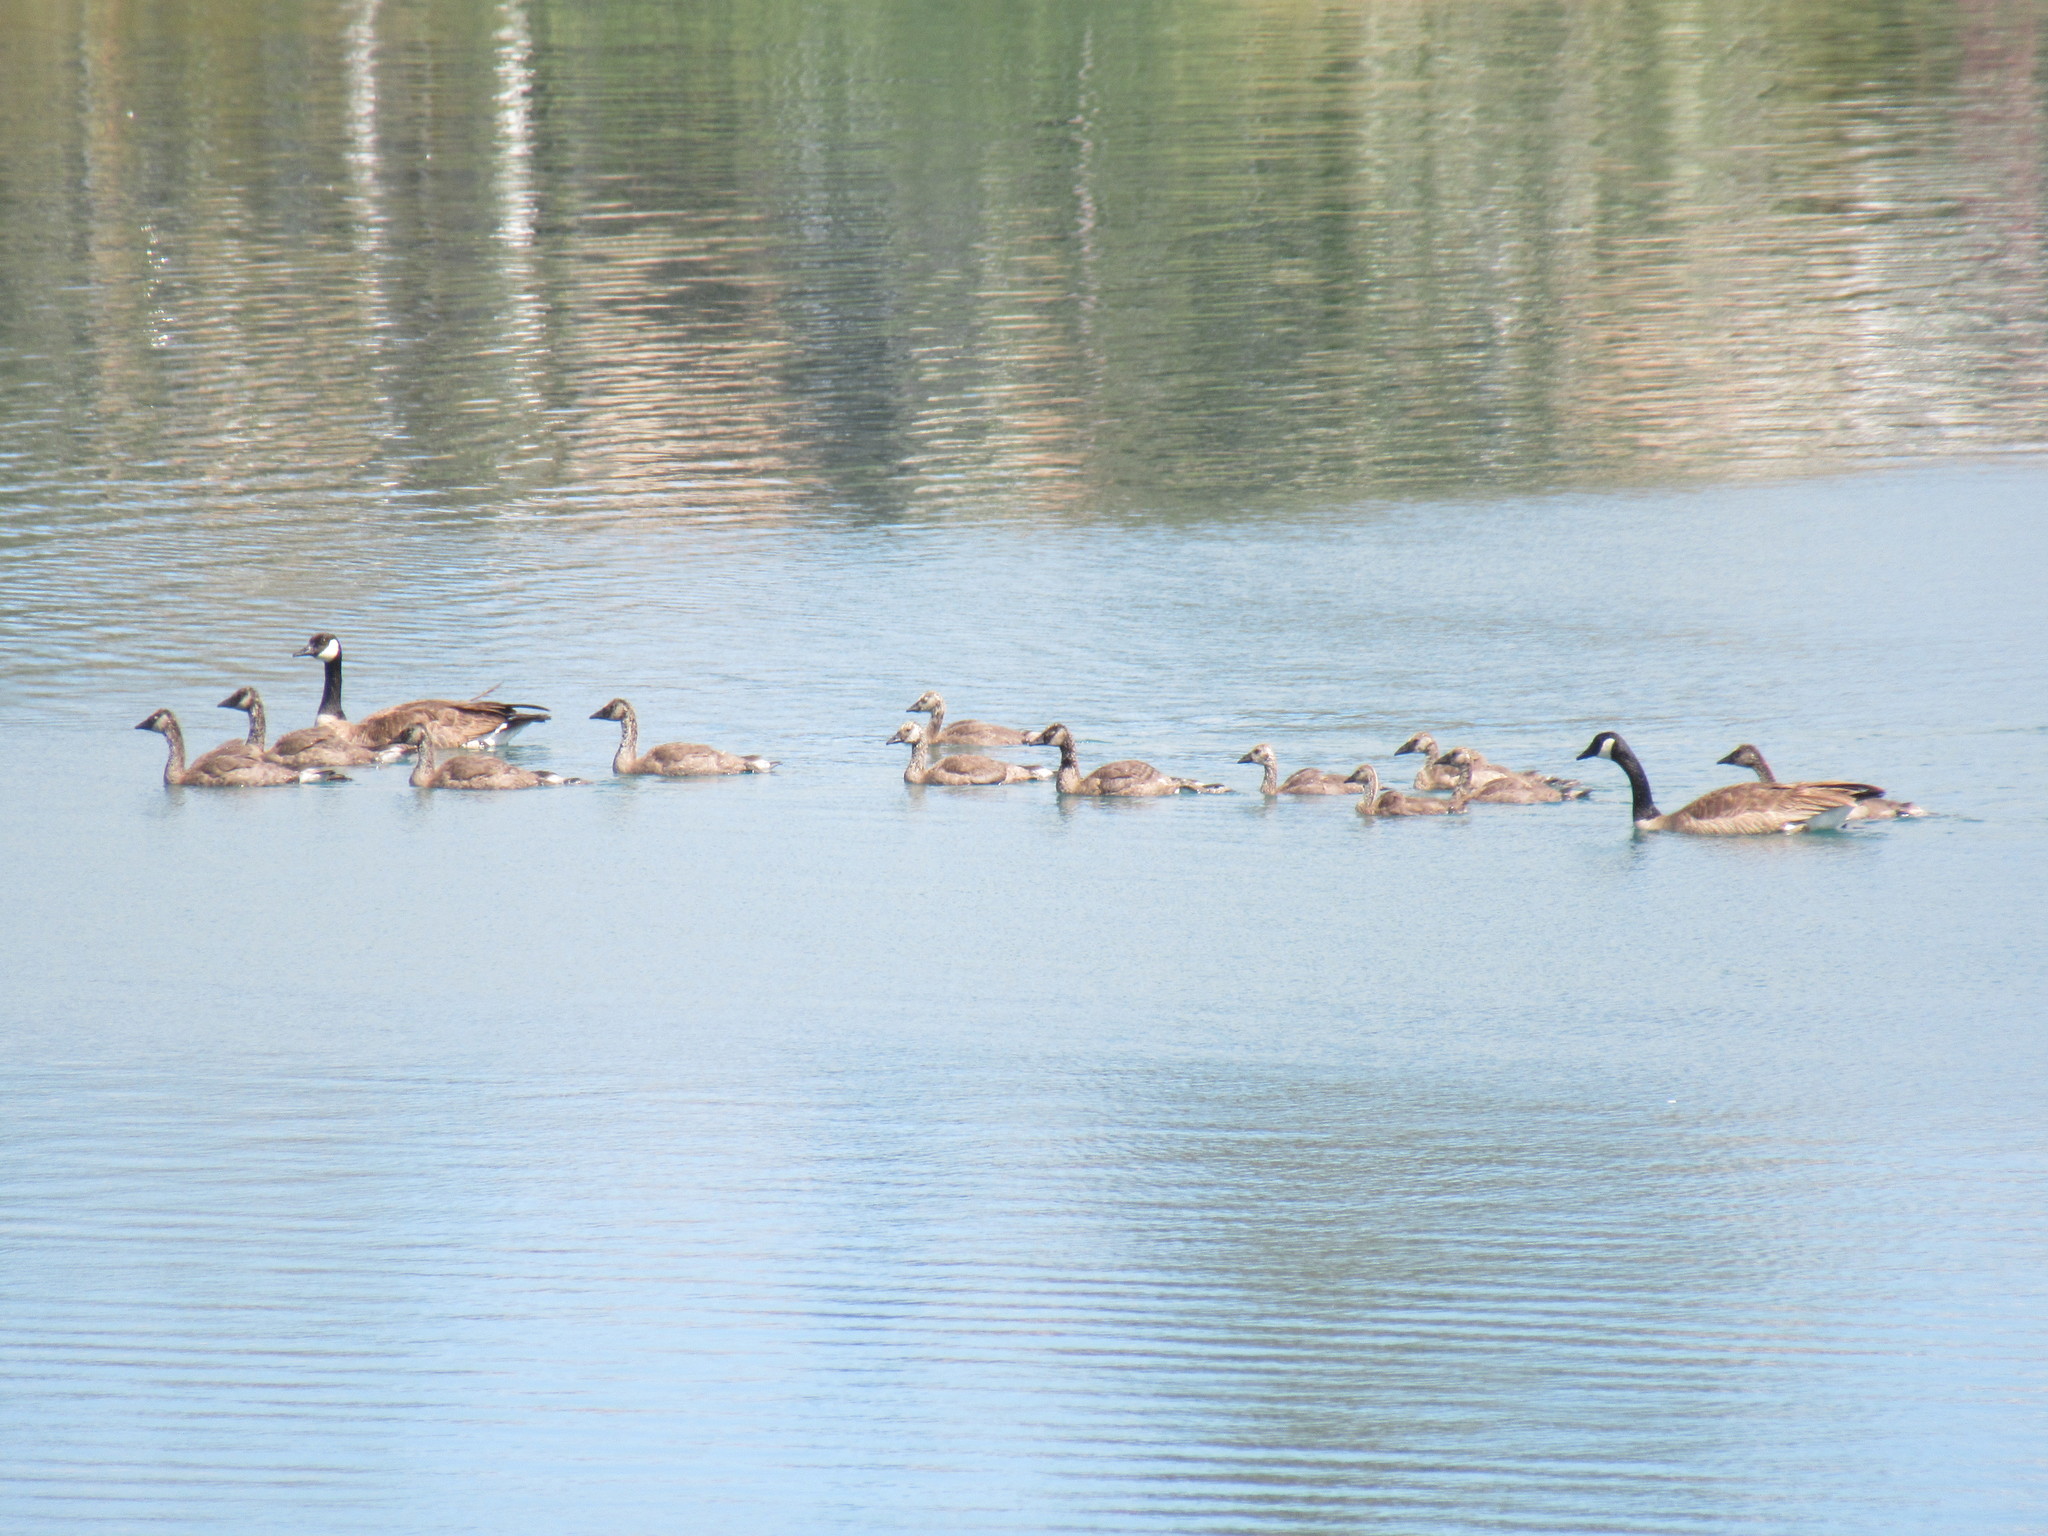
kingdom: Animalia
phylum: Chordata
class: Aves
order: Anseriformes
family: Anatidae
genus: Branta
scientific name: Branta canadensis
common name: Canada goose
